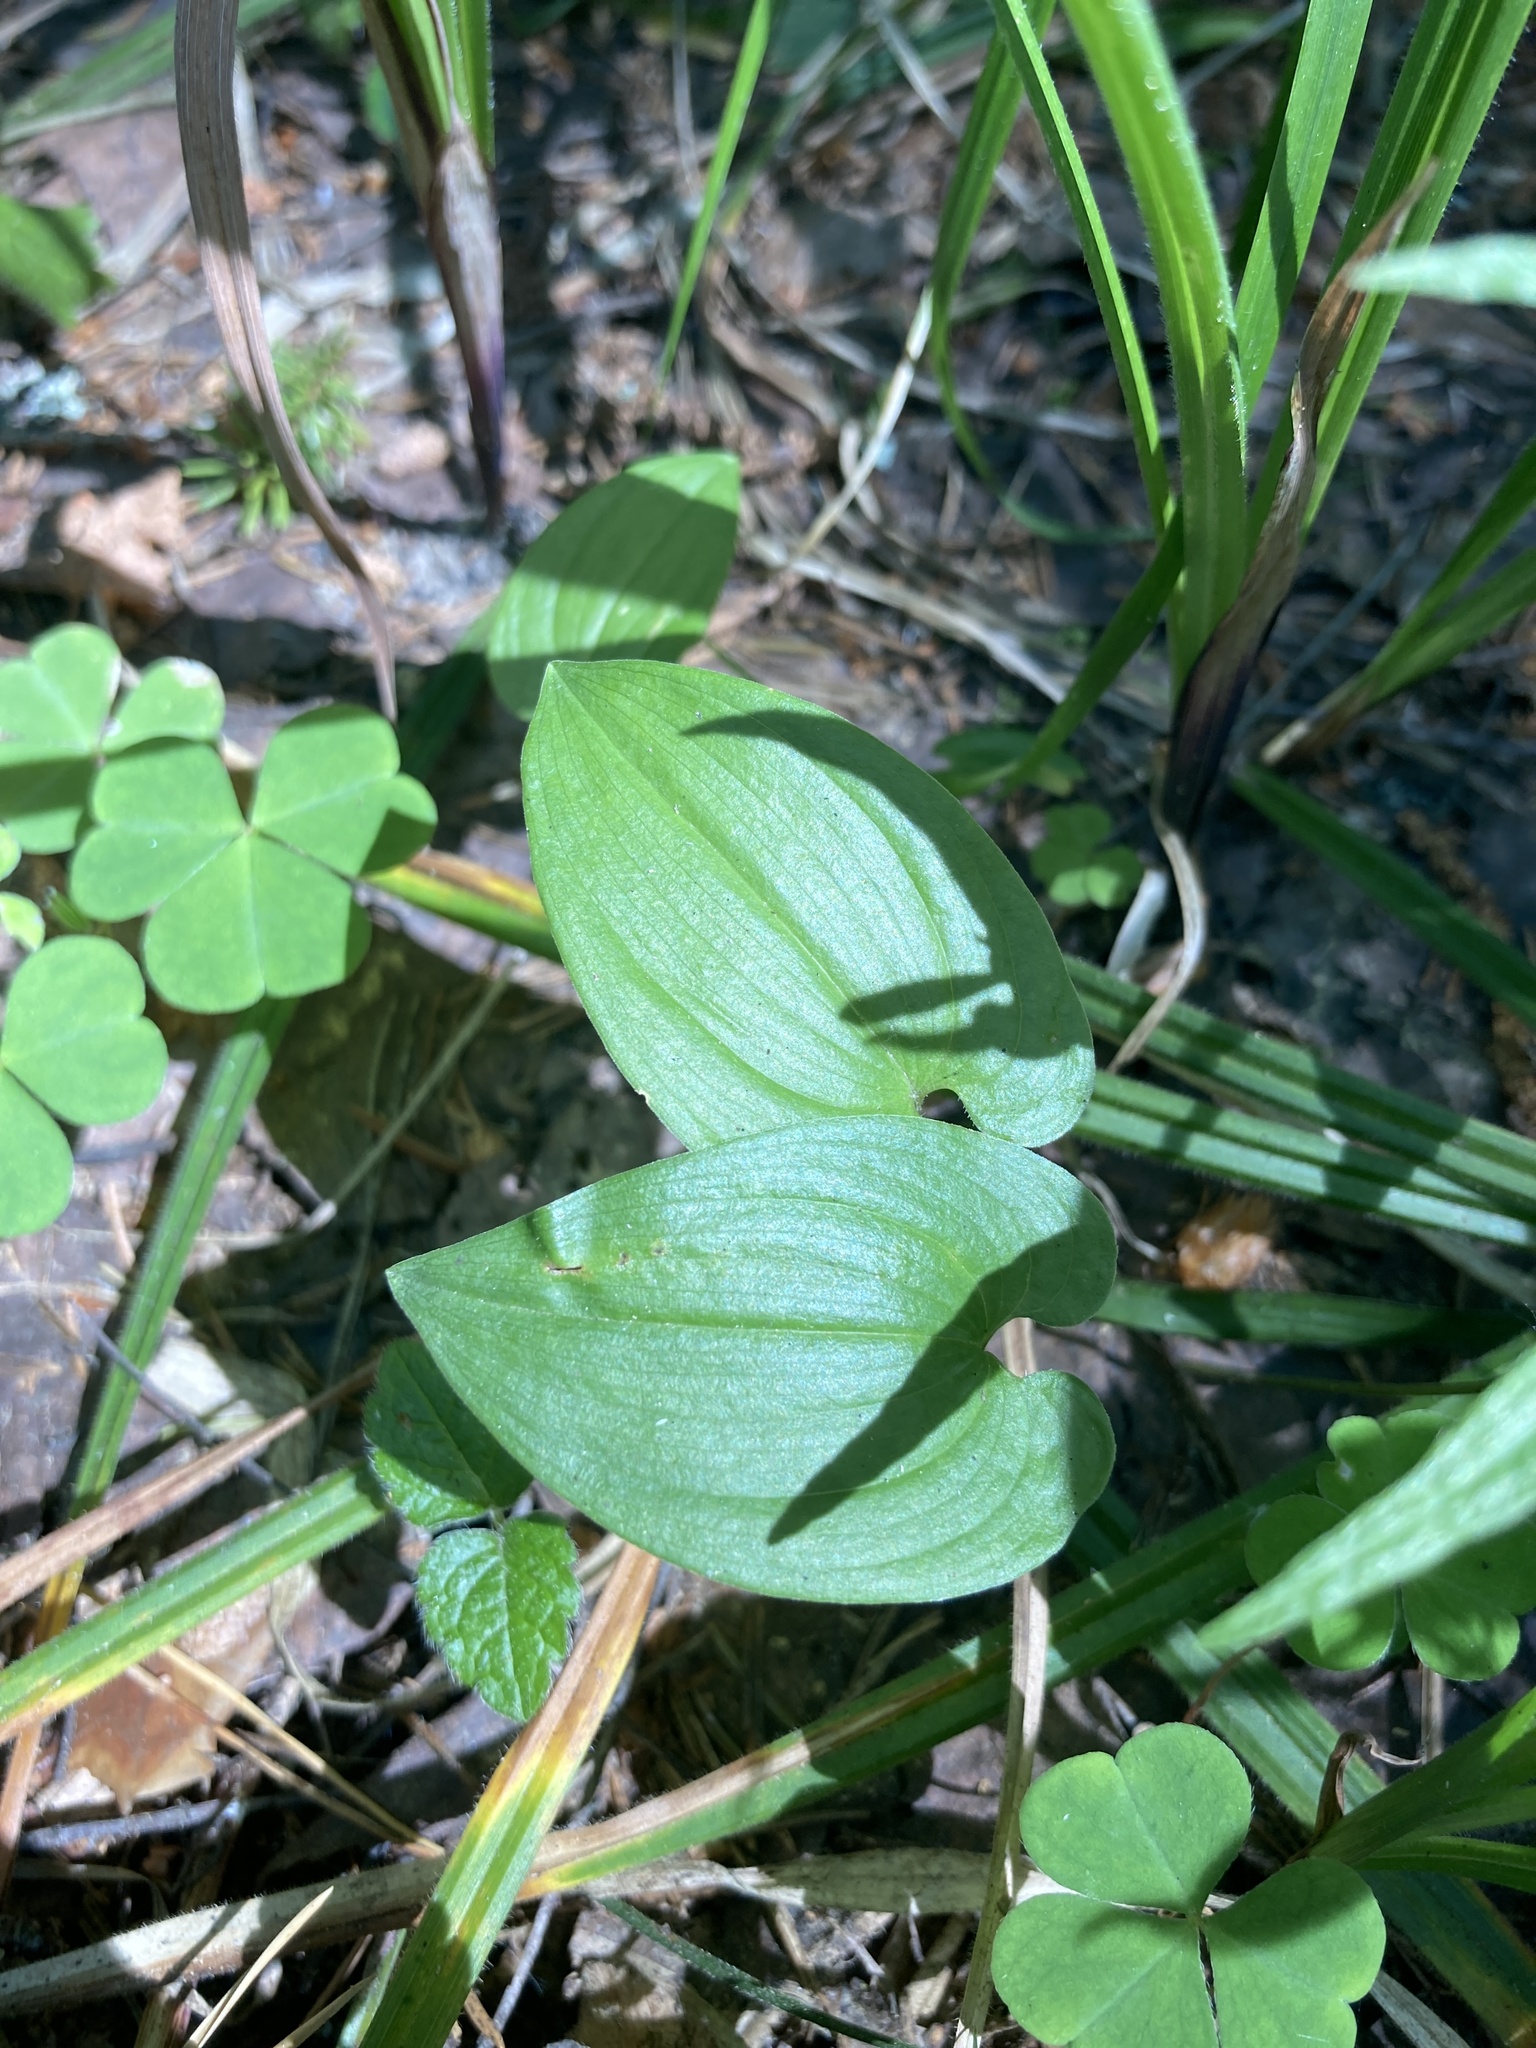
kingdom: Plantae
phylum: Tracheophyta
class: Liliopsida
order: Asparagales
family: Asparagaceae
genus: Maianthemum
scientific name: Maianthemum bifolium
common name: May lily
